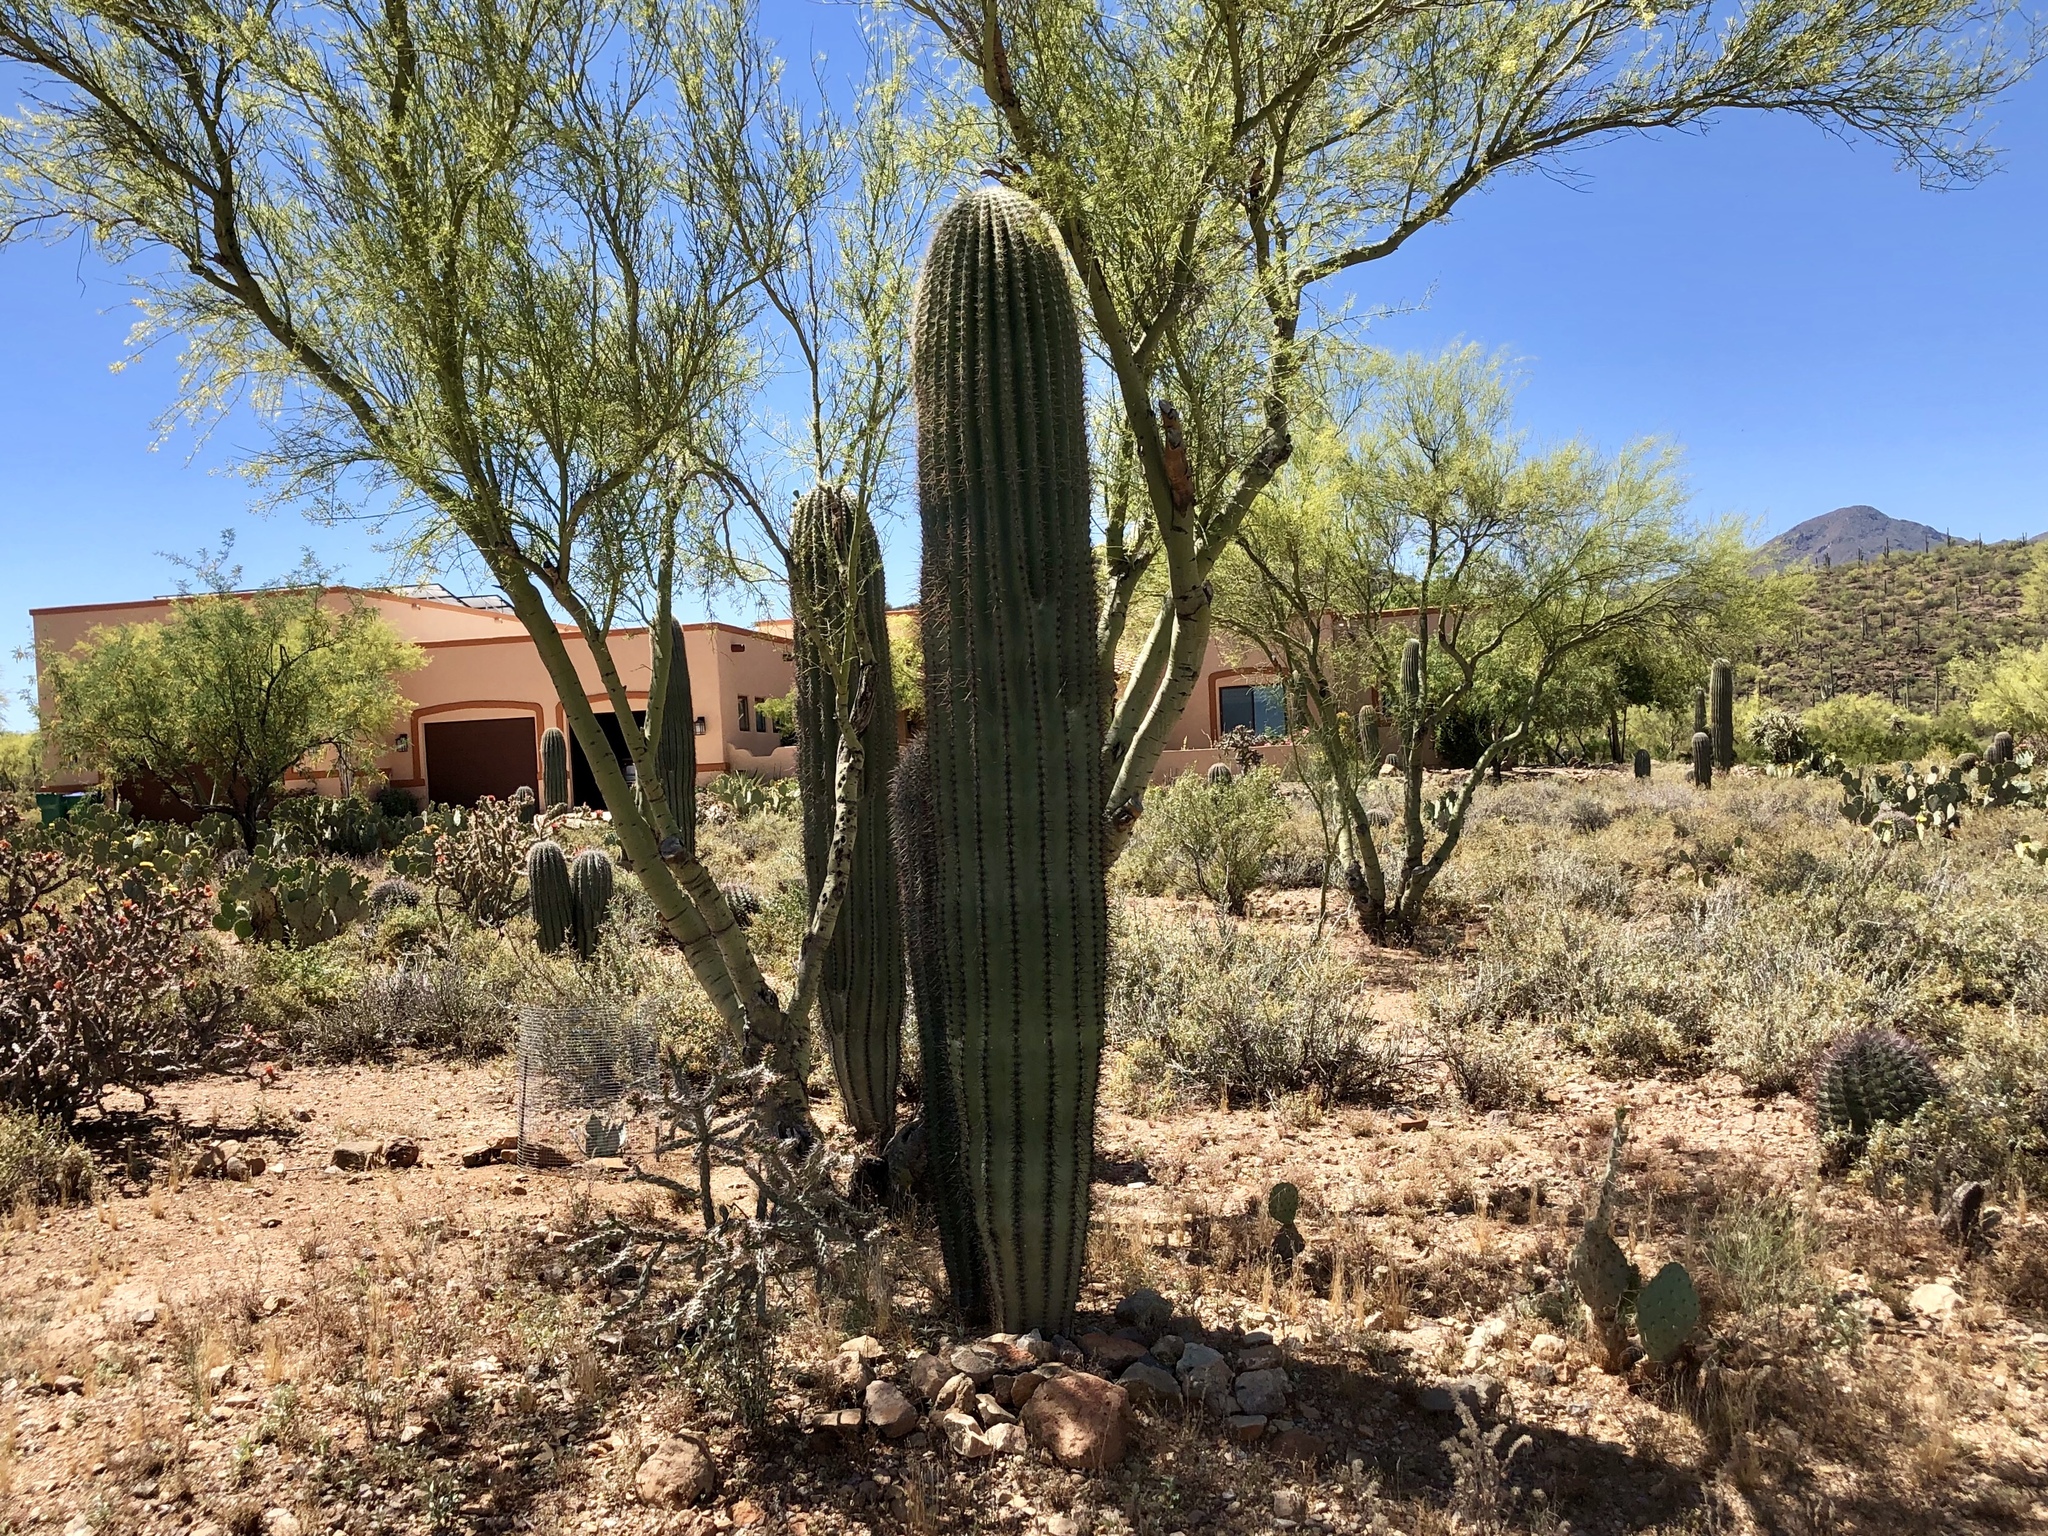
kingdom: Plantae
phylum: Tracheophyta
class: Magnoliopsida
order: Caryophyllales
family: Cactaceae
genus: Carnegiea
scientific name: Carnegiea gigantea
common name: Saguaro
